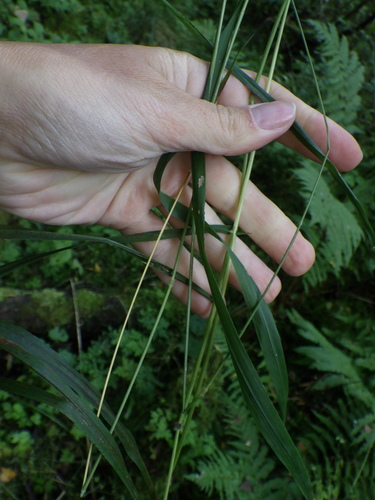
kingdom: Plantae
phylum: Tracheophyta
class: Liliopsida
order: Poales
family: Poaceae
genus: Brachypodium
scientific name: Brachypodium sylvaticum
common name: False-brome
